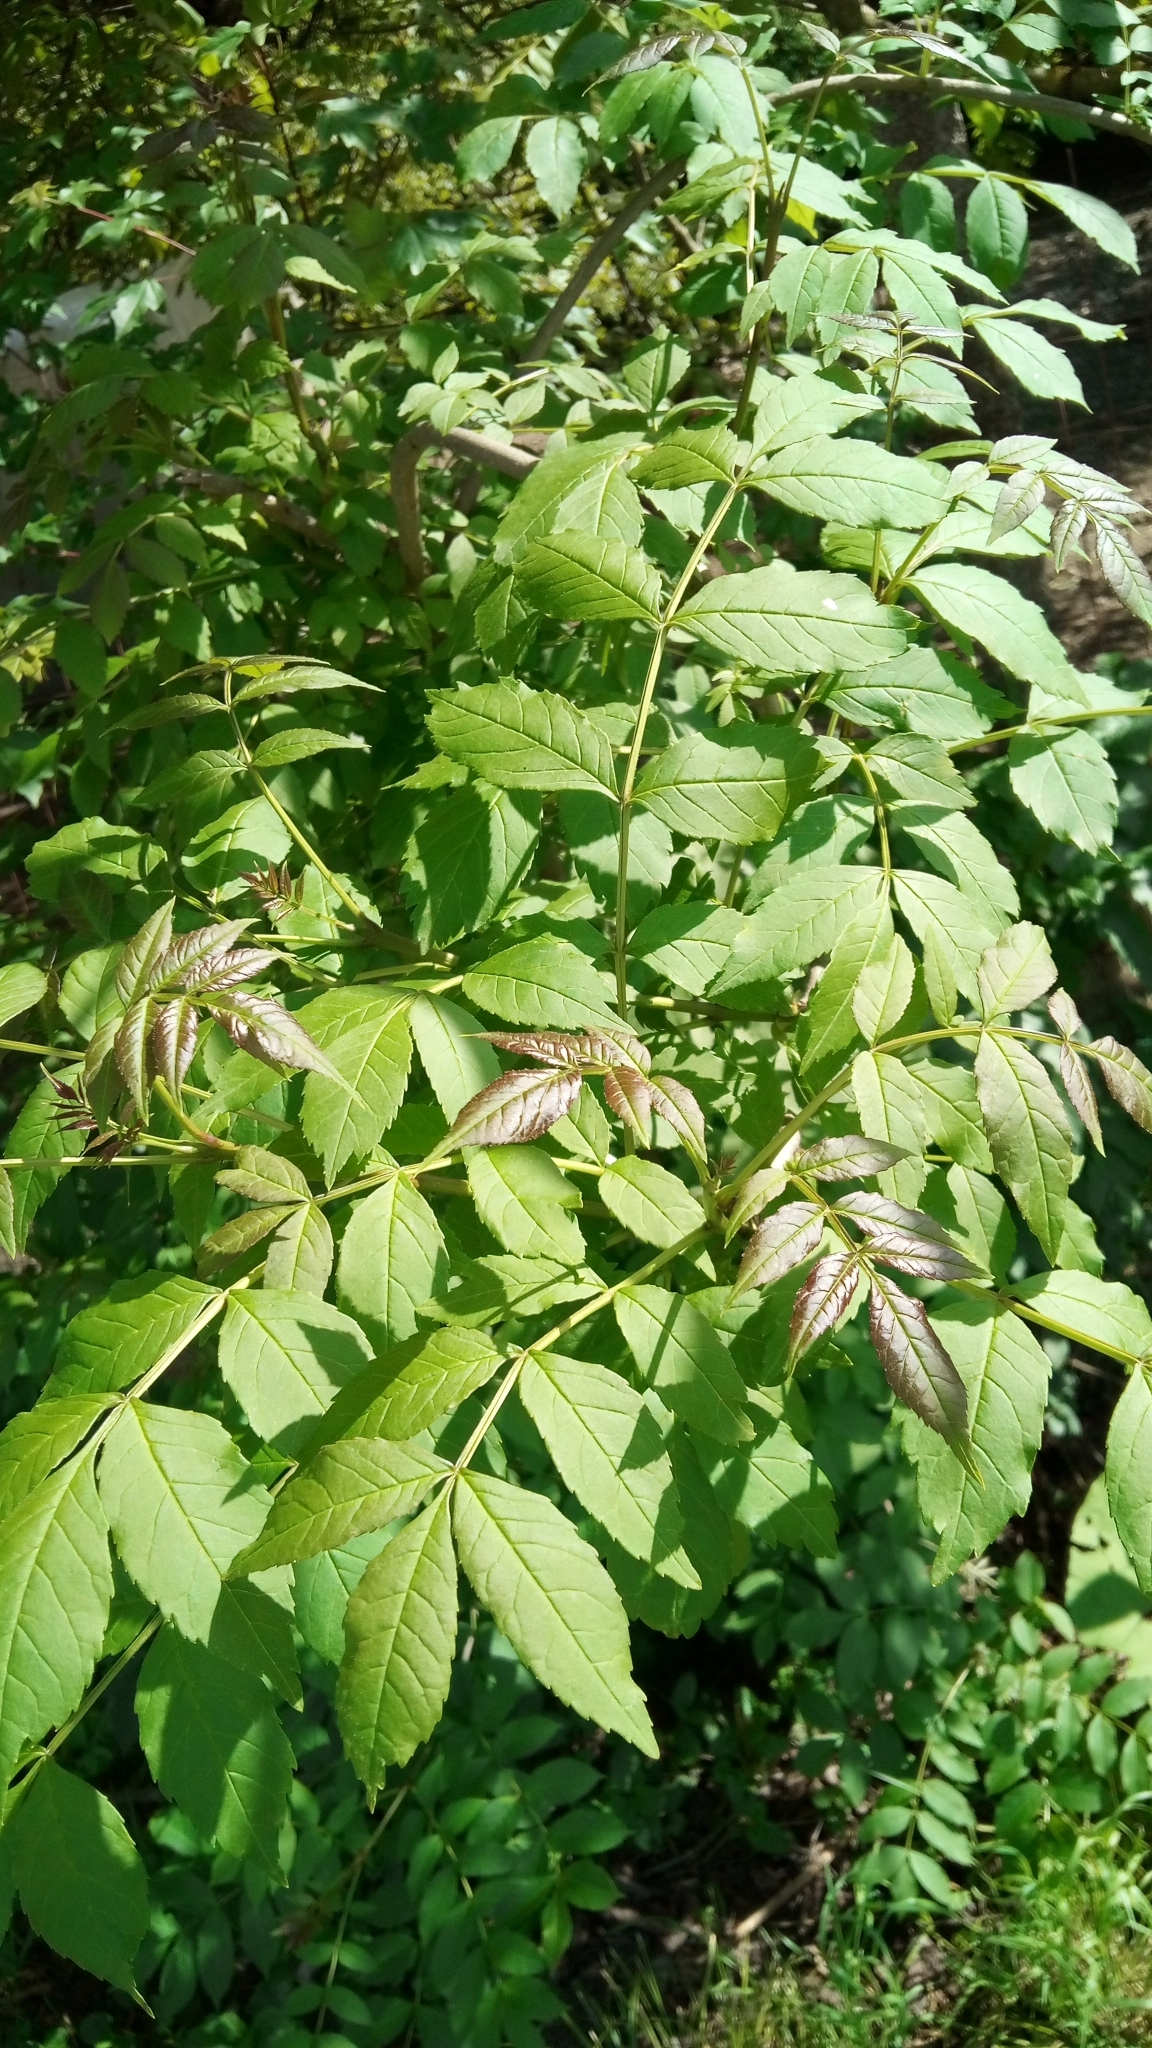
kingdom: Plantae
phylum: Tracheophyta
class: Magnoliopsida
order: Lamiales
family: Oleaceae
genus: Fraxinus
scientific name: Fraxinus excelsior
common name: European ash
